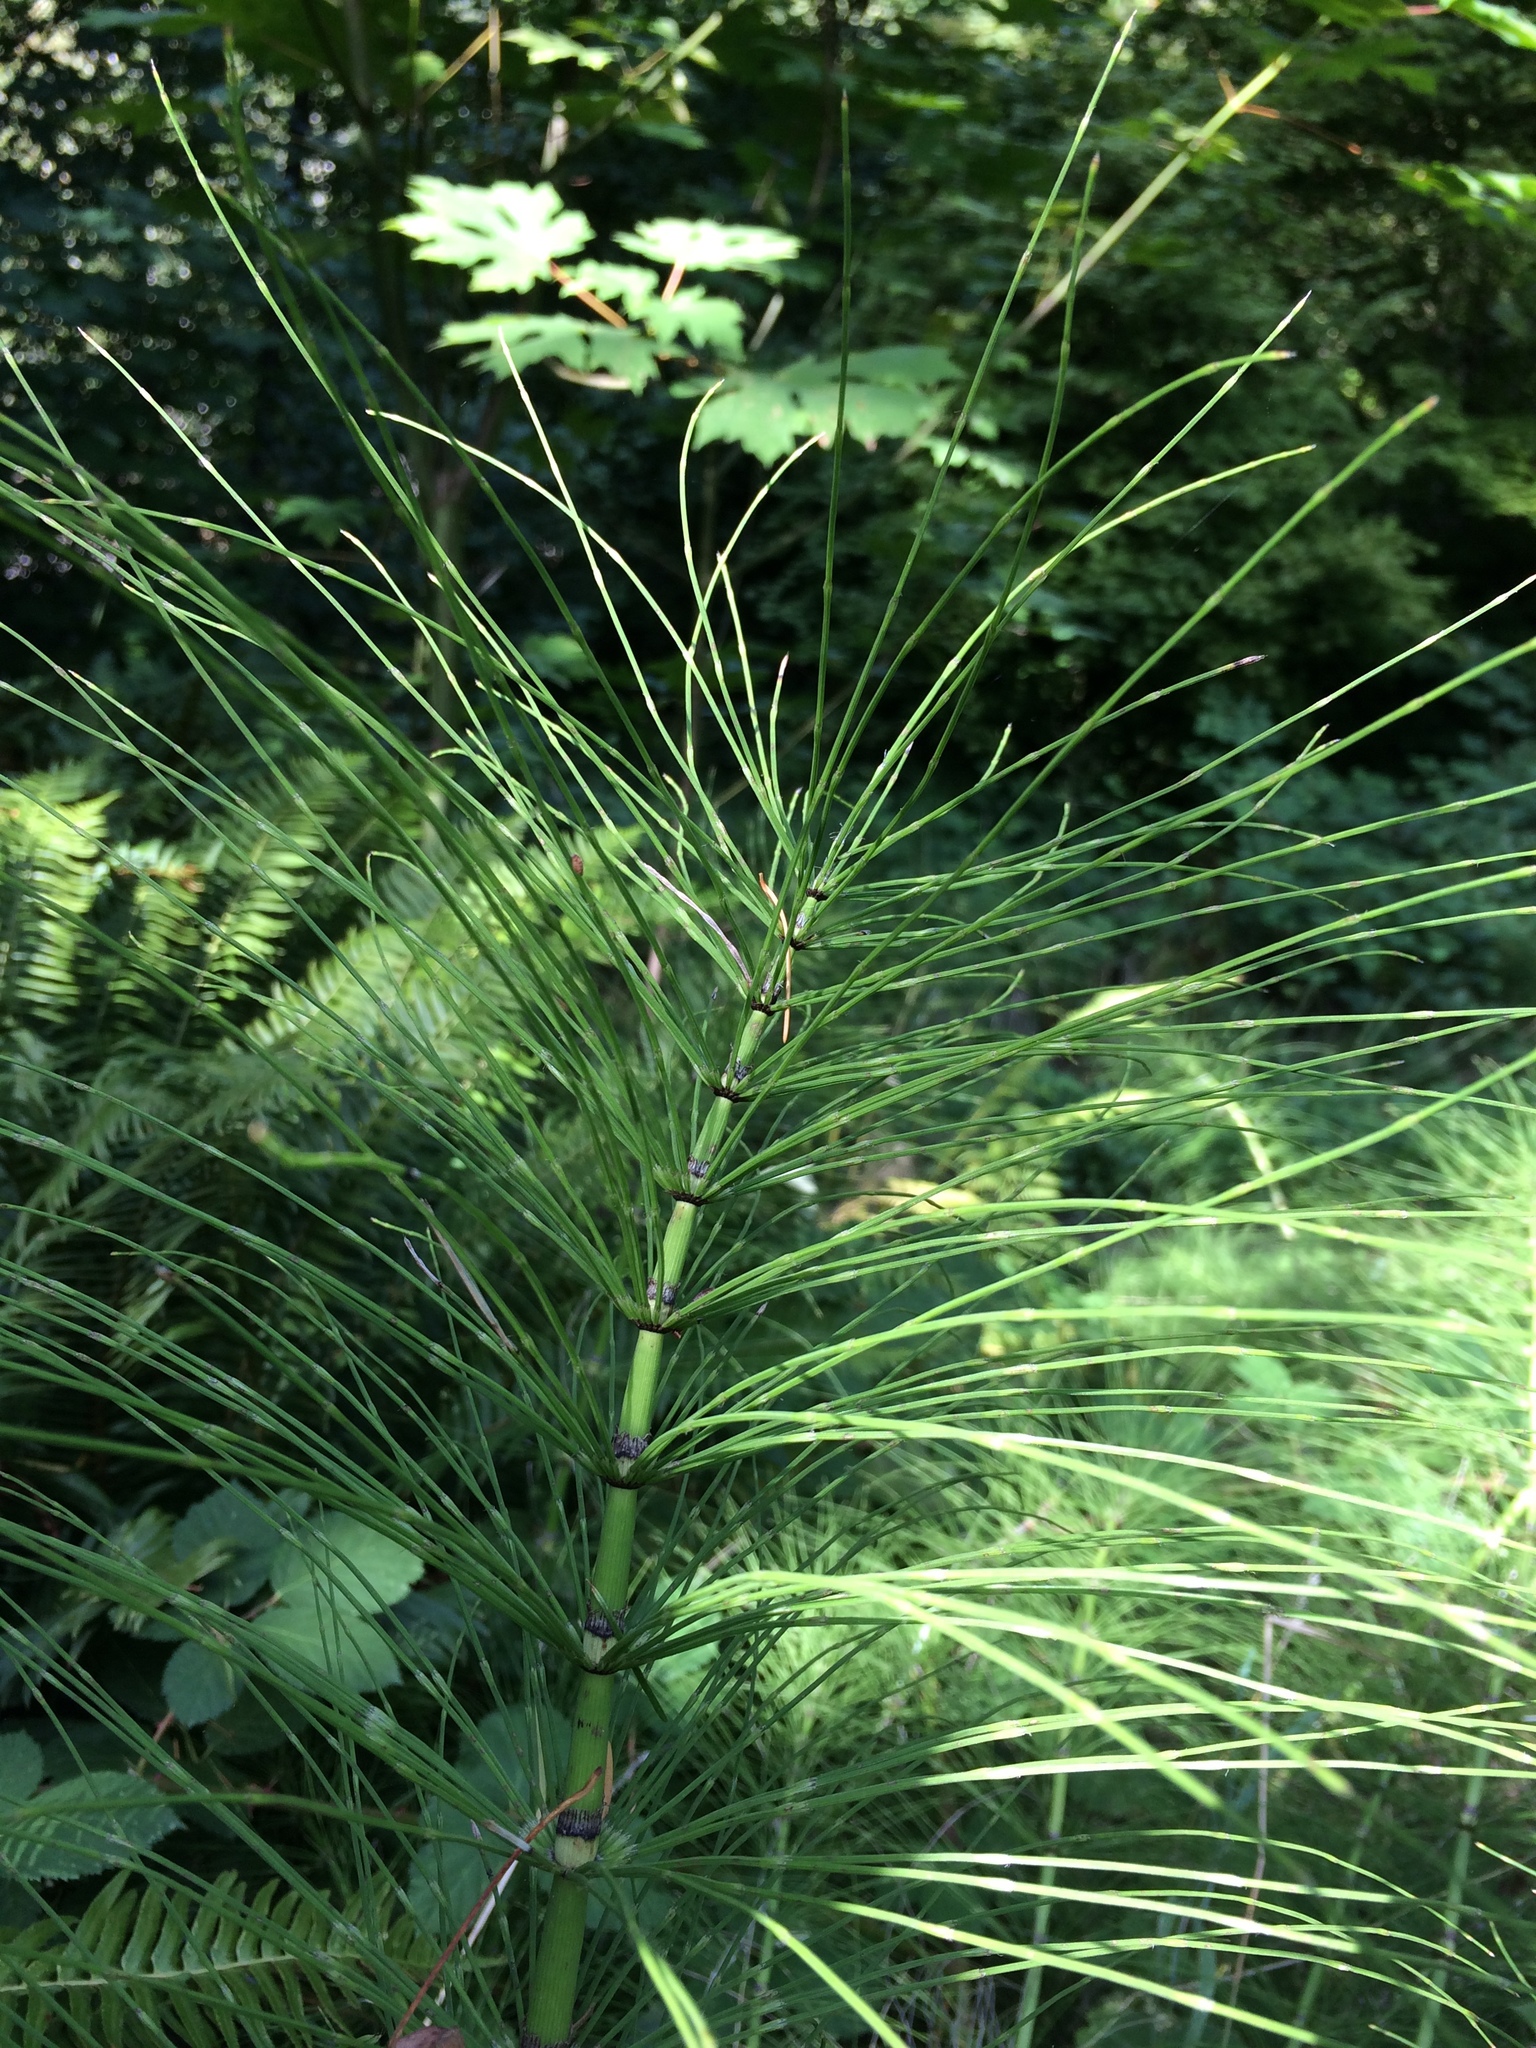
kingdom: Plantae
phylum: Tracheophyta
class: Polypodiopsida
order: Equisetales
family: Equisetaceae
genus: Equisetum
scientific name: Equisetum braunii
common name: Braun's horsetail
